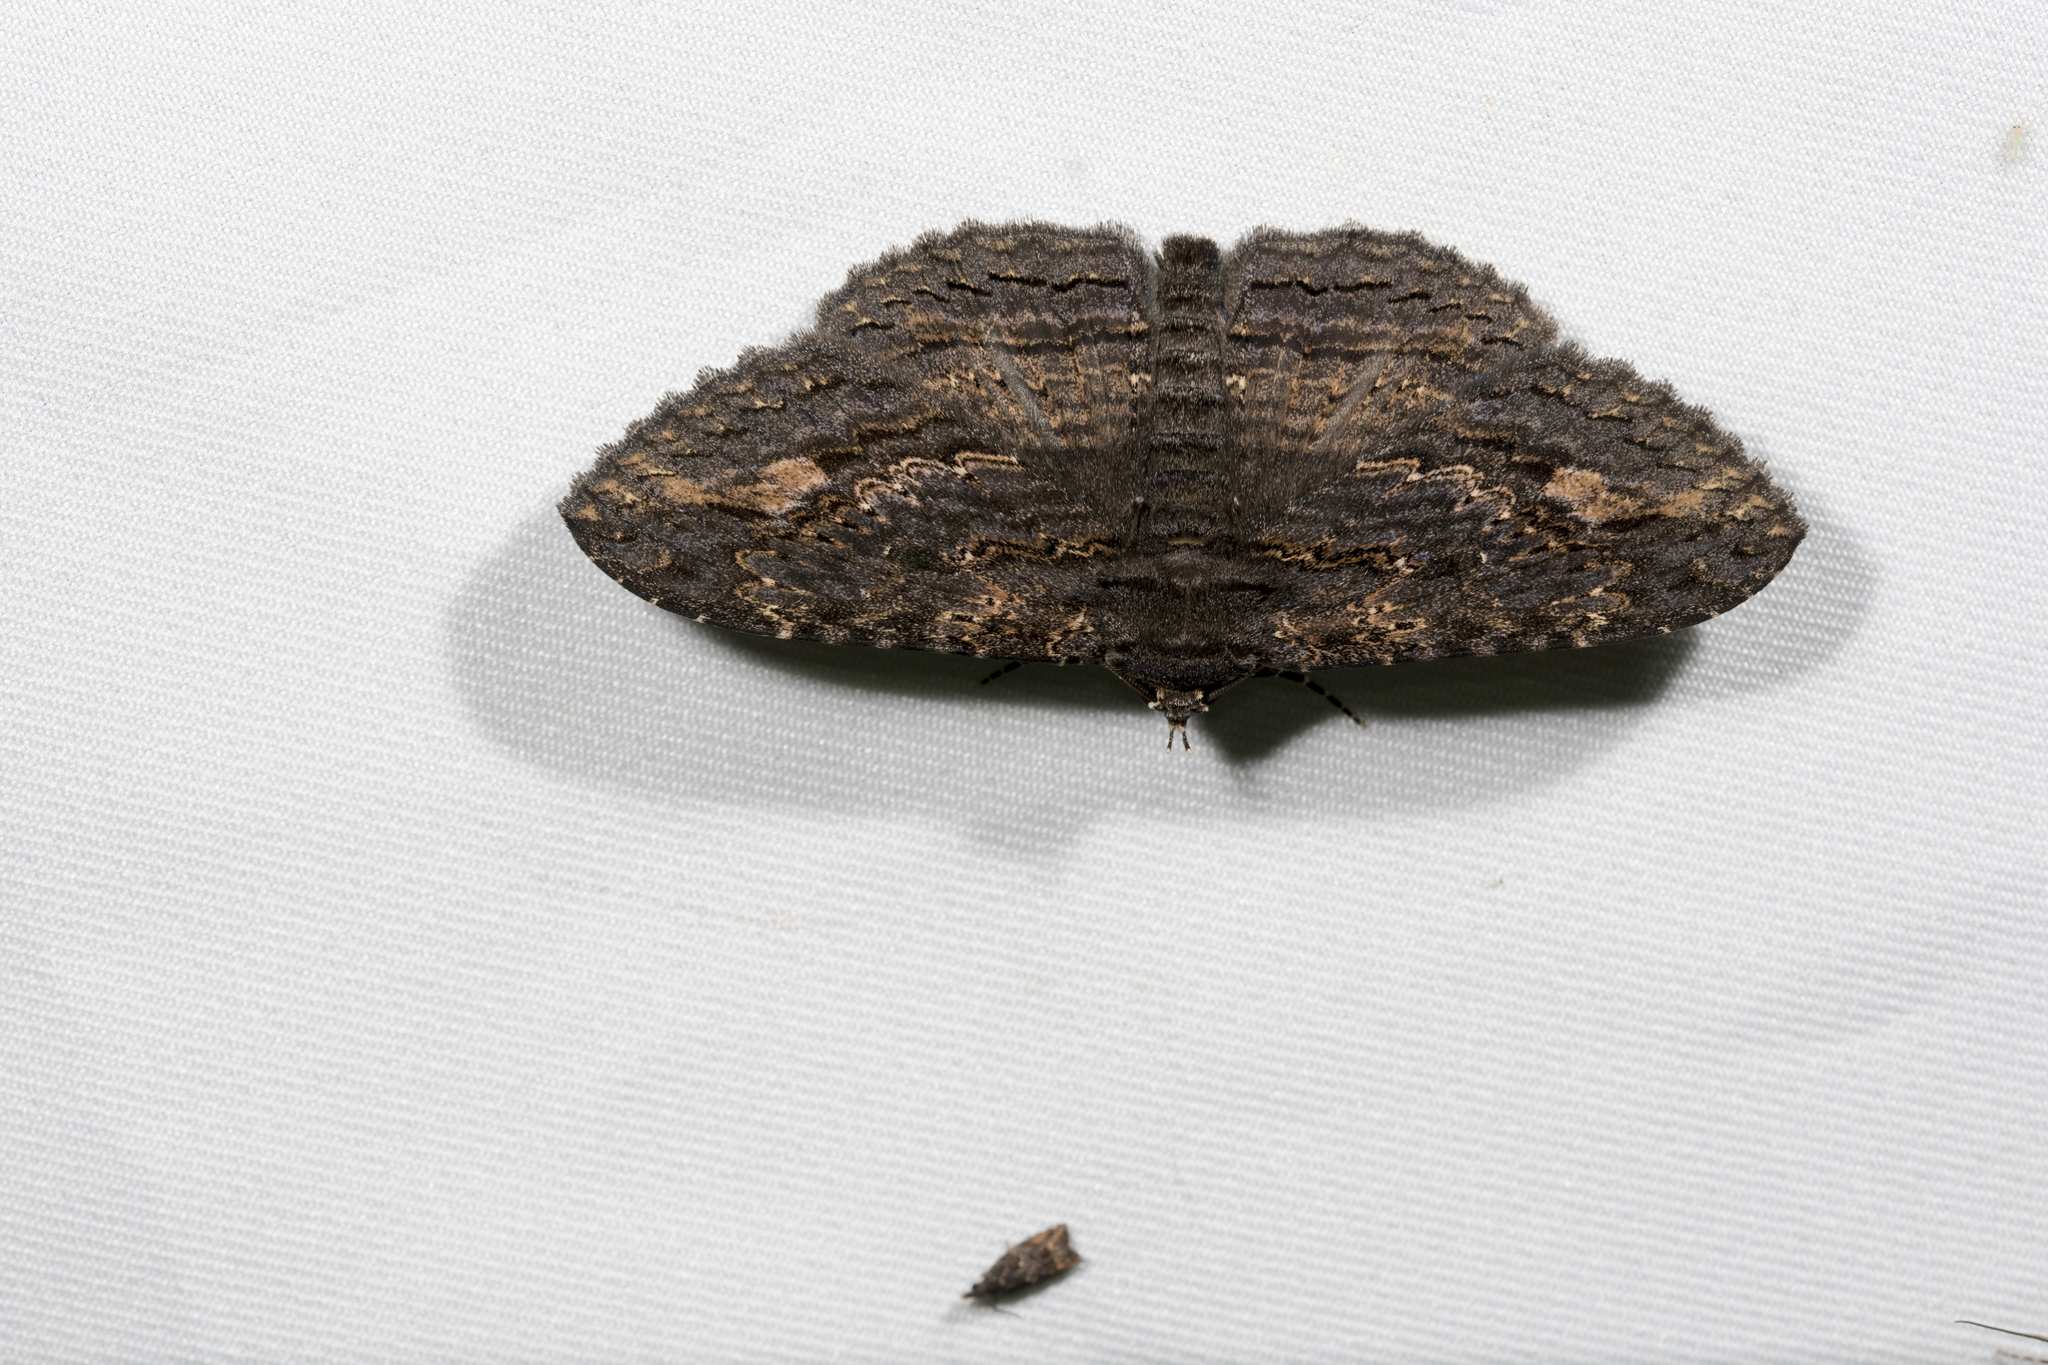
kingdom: Animalia
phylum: Arthropoda
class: Insecta
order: Lepidoptera
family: Erebidae
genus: Anisoneura
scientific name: Anisoneura salebrosa
